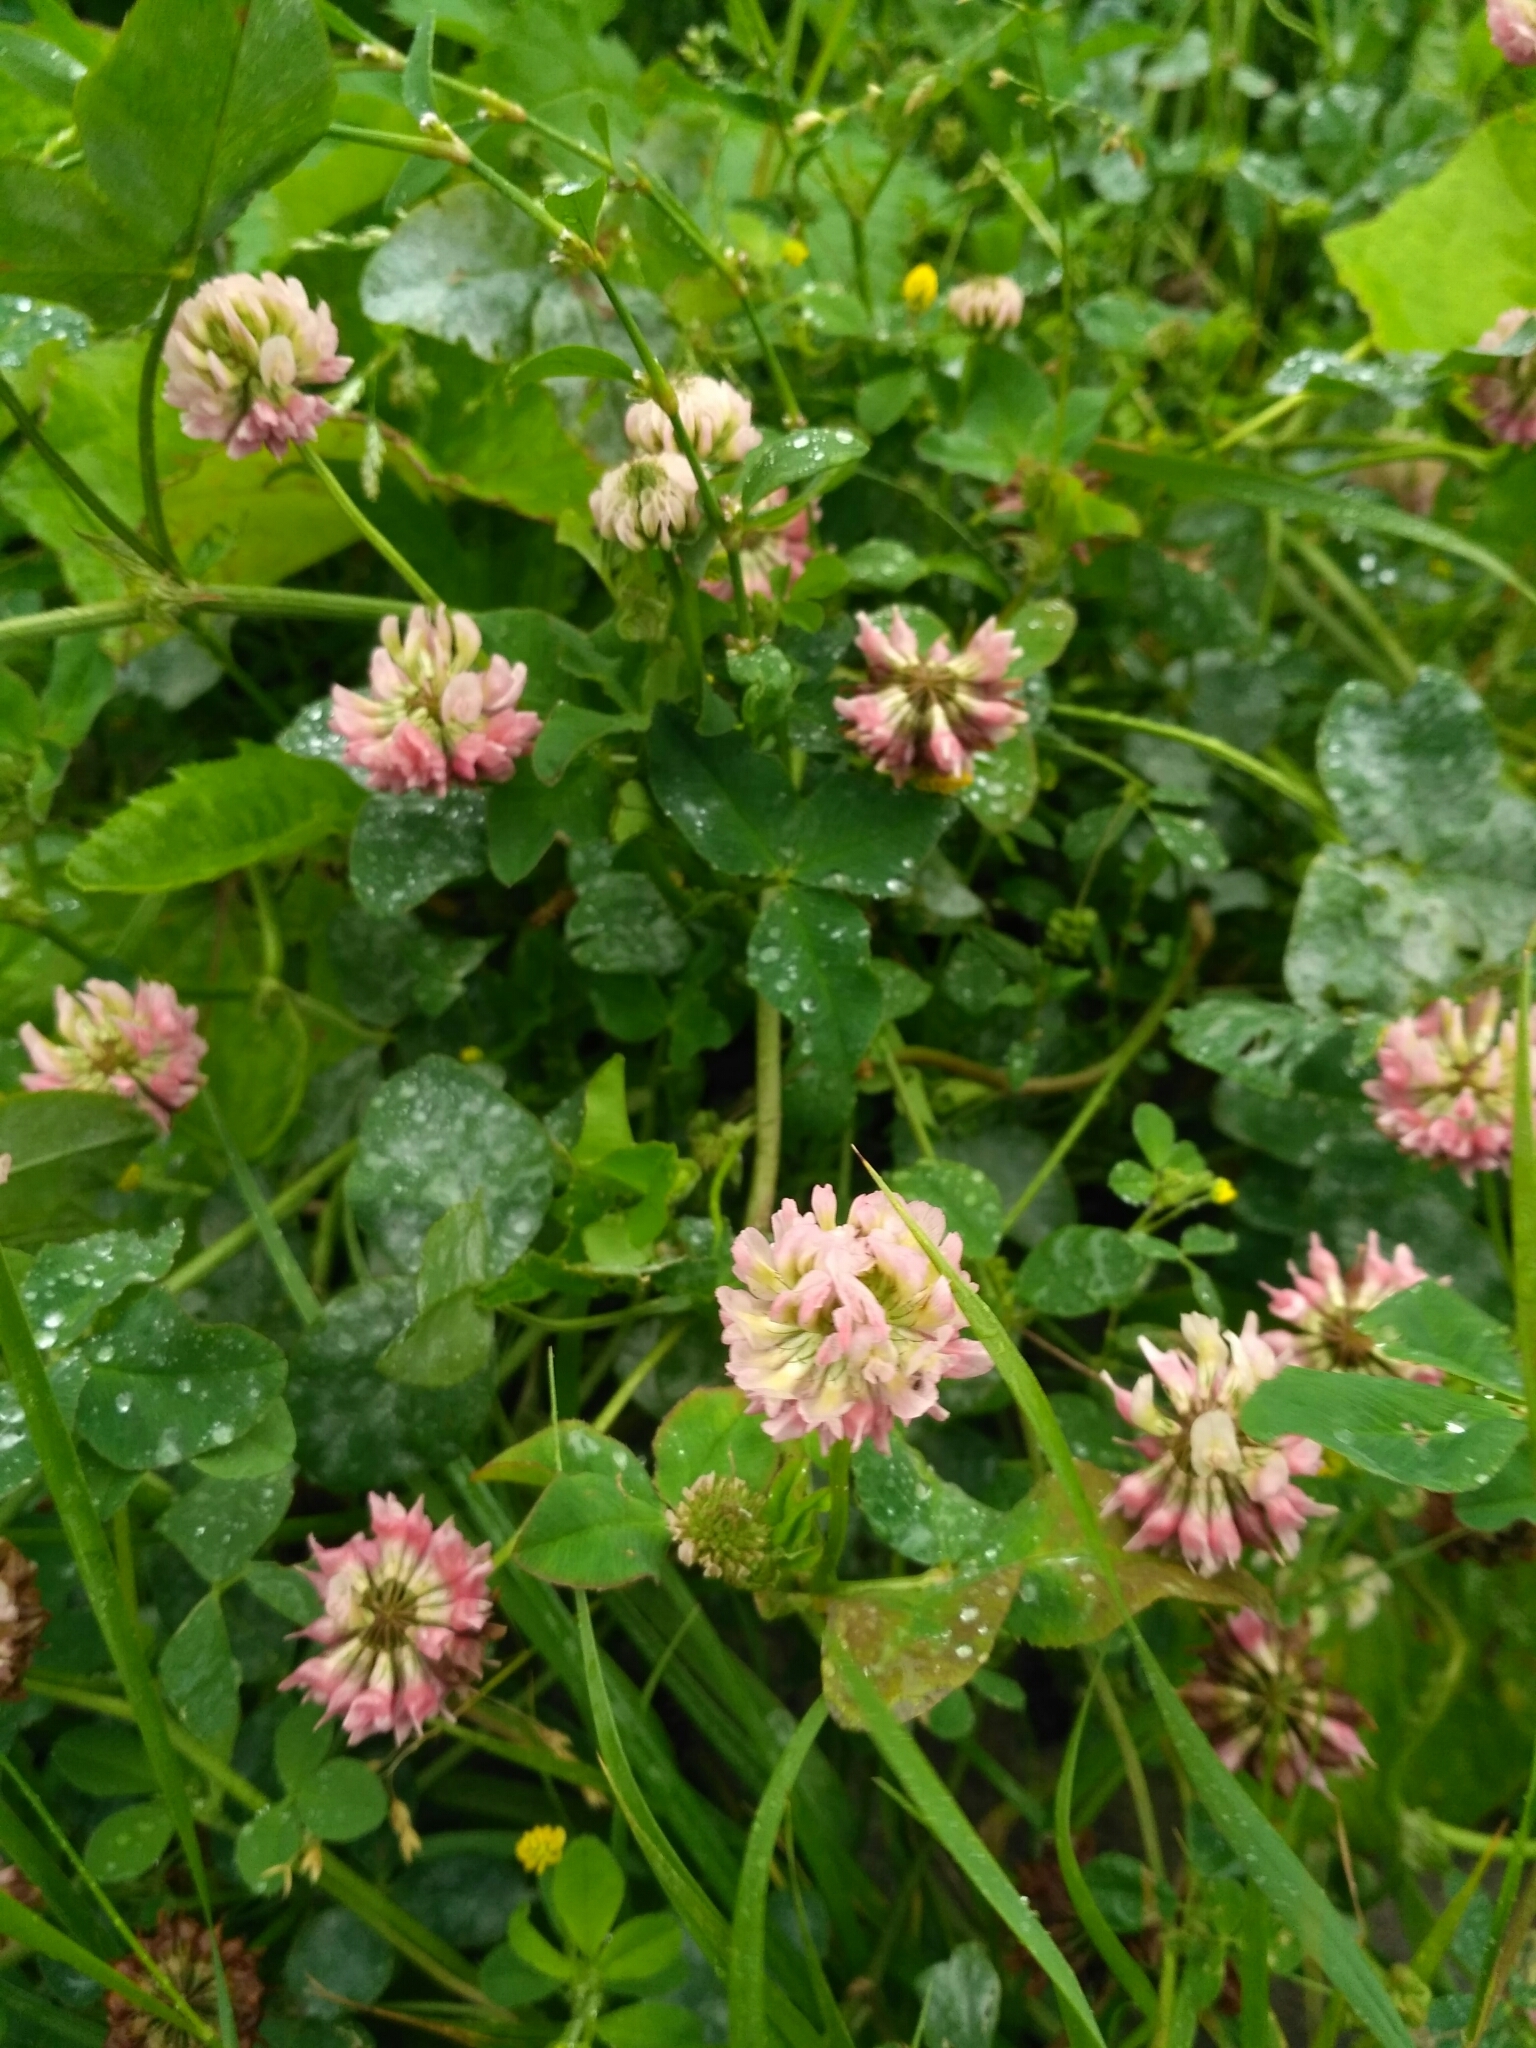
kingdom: Plantae
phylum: Tracheophyta
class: Magnoliopsida
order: Fabales
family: Fabaceae
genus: Trifolium
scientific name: Trifolium hybridum
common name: Alsike clover
